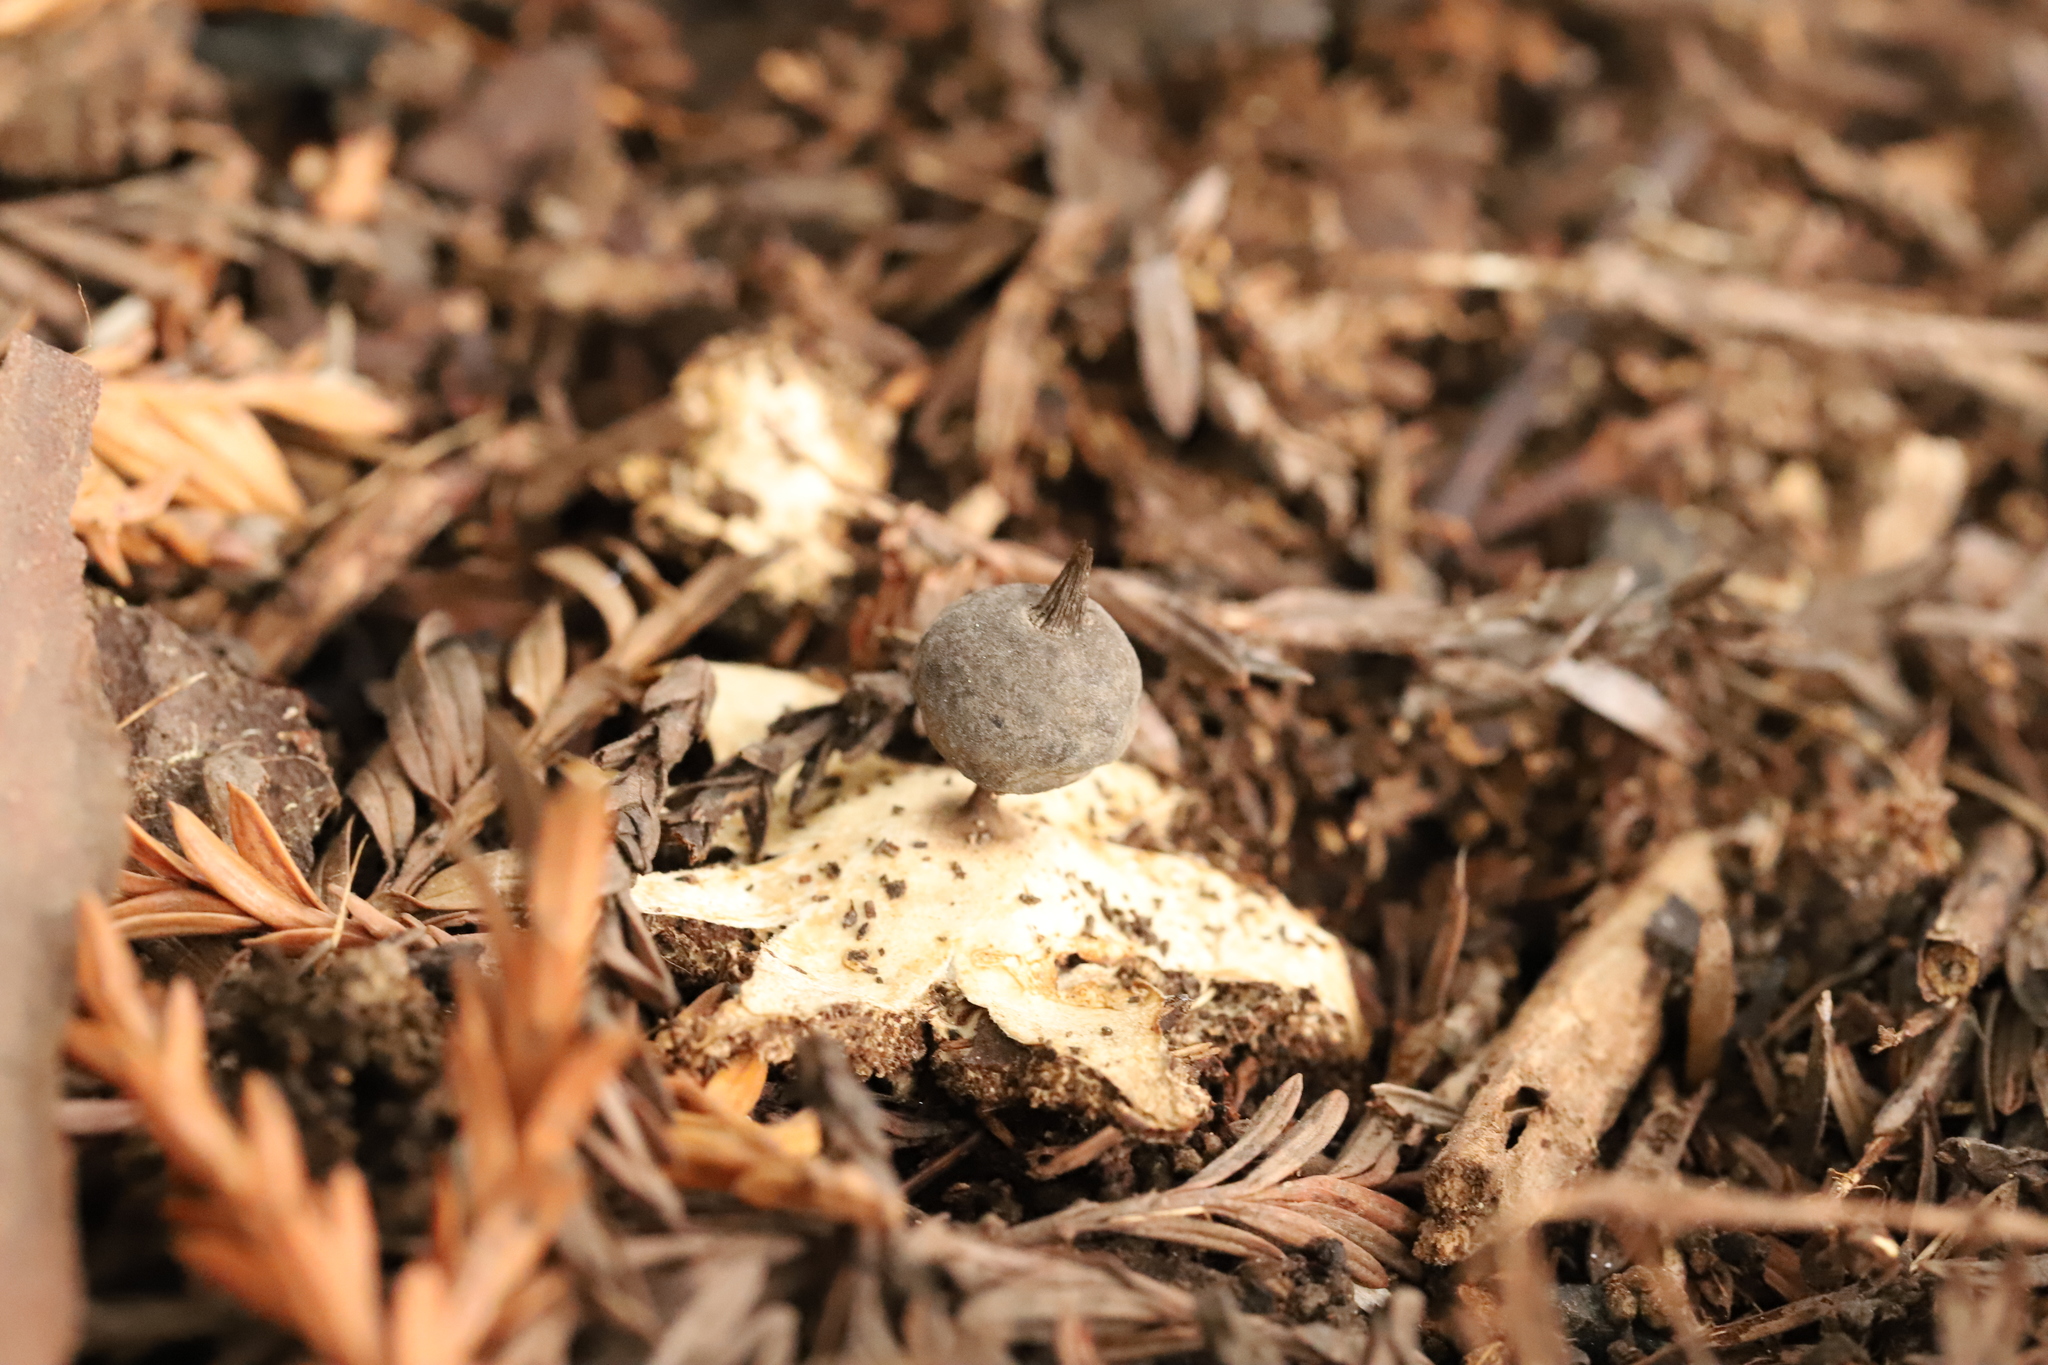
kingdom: Fungi
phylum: Basidiomycota
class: Agaricomycetes
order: Geastrales
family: Geastraceae
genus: Geastrum
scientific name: Geastrum pectinatum
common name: Beaked earthstar
